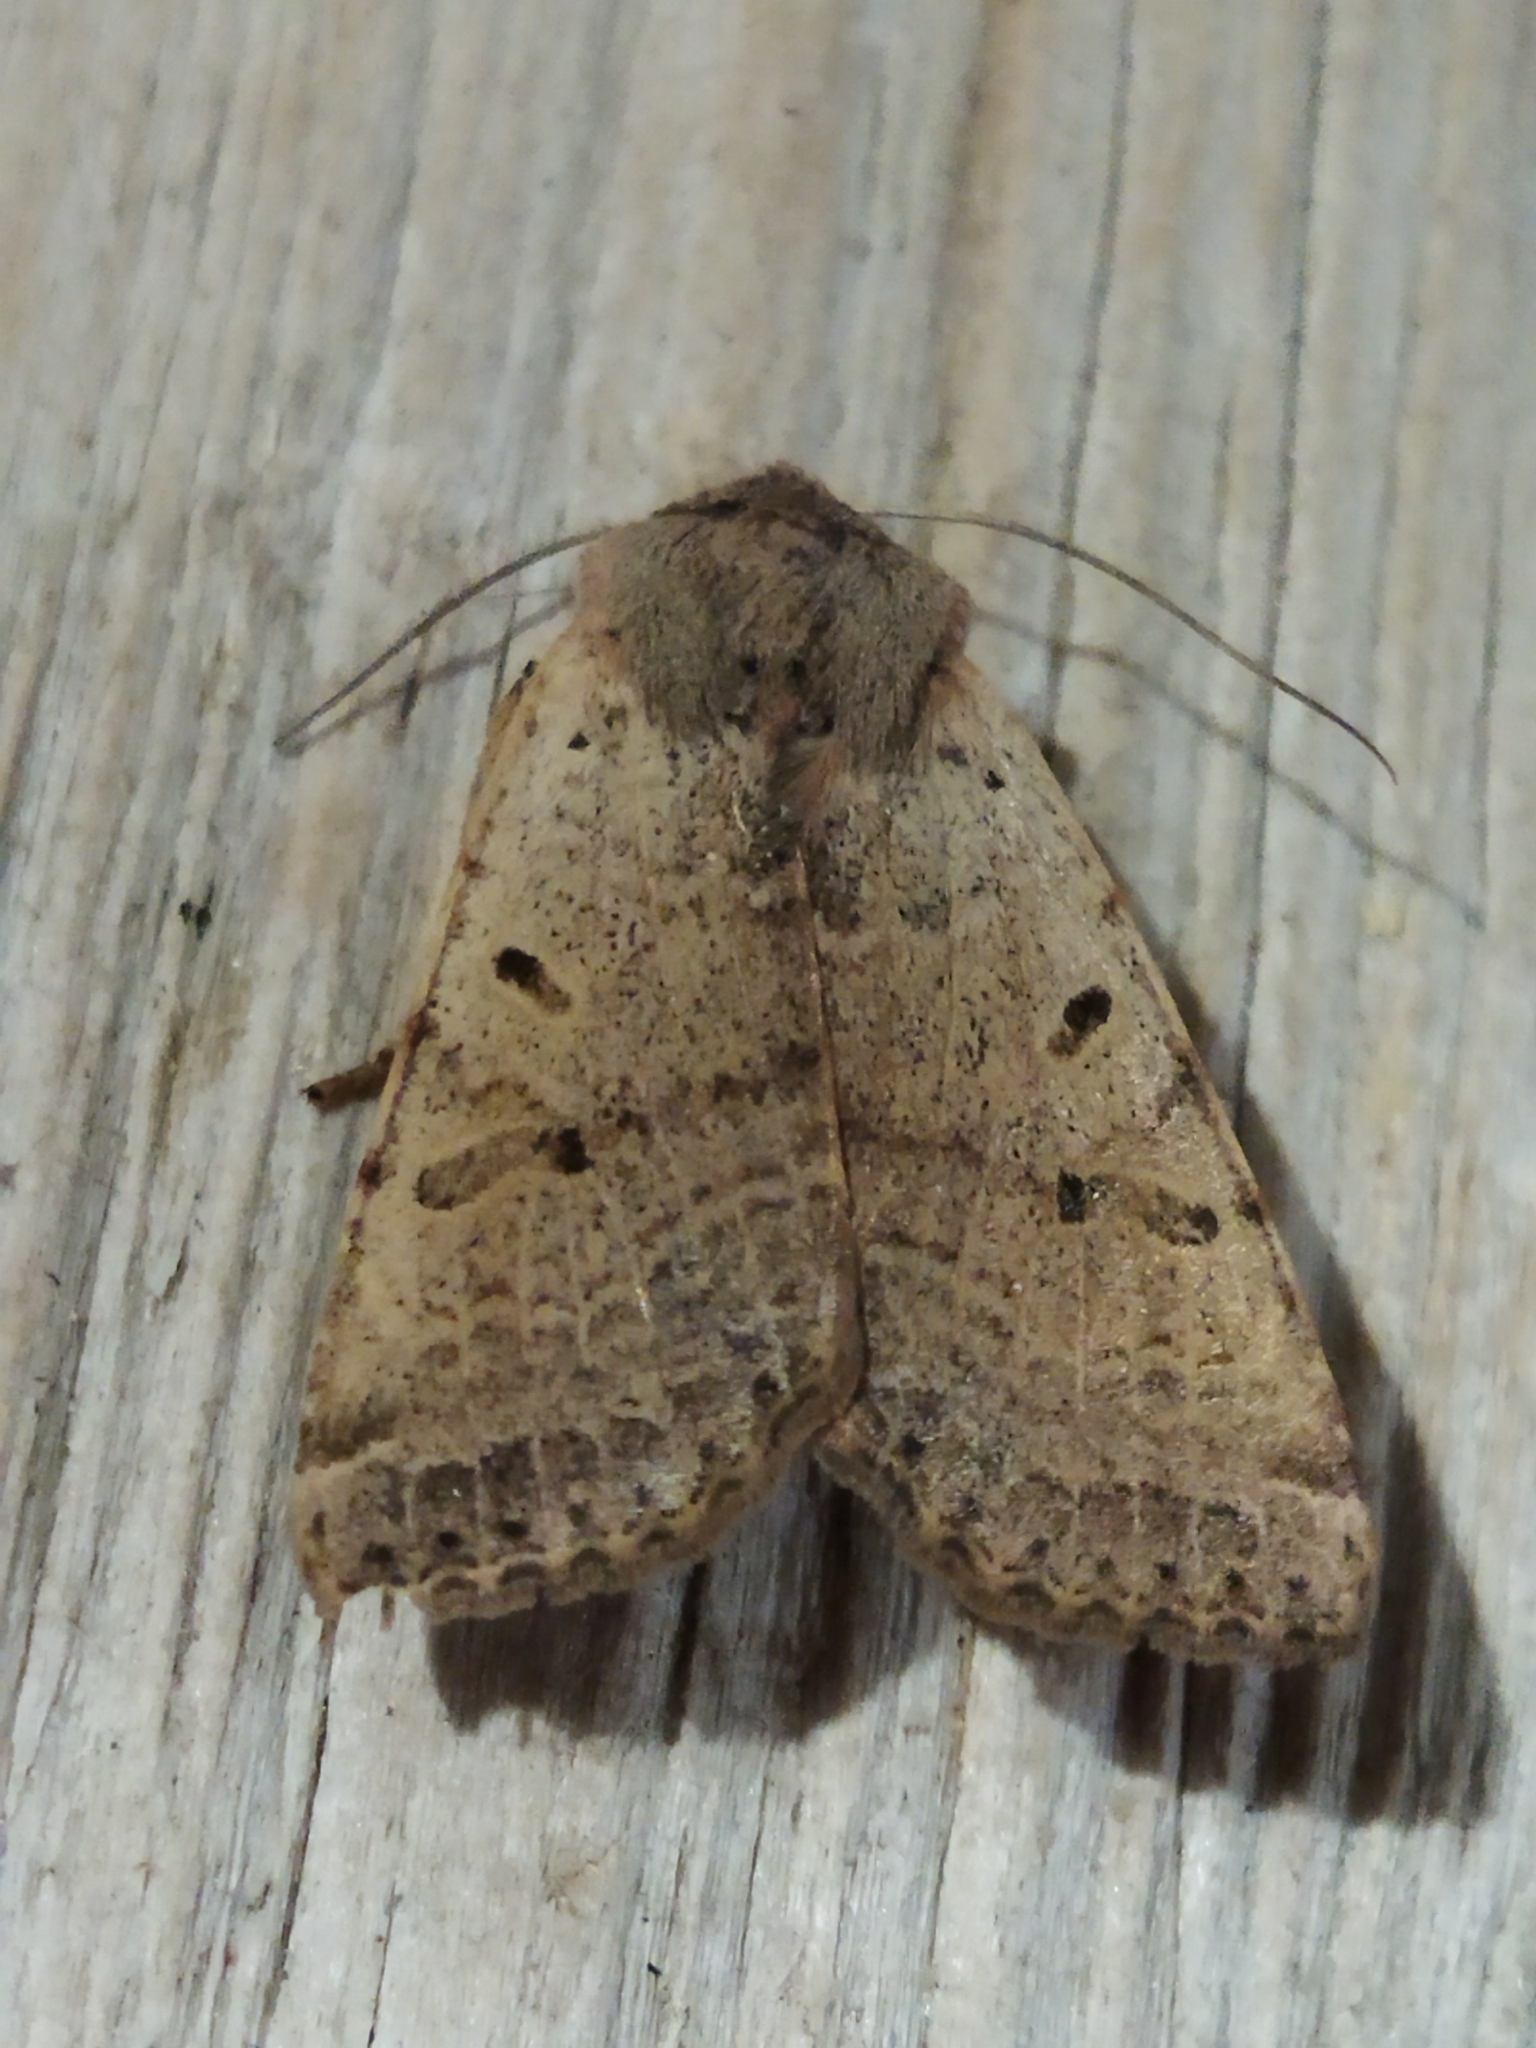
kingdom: Animalia
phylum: Arthropoda
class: Insecta
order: Lepidoptera
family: Noctuidae
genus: Agrochola
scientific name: Agrochola lychnidis
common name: Beaded chestnut
